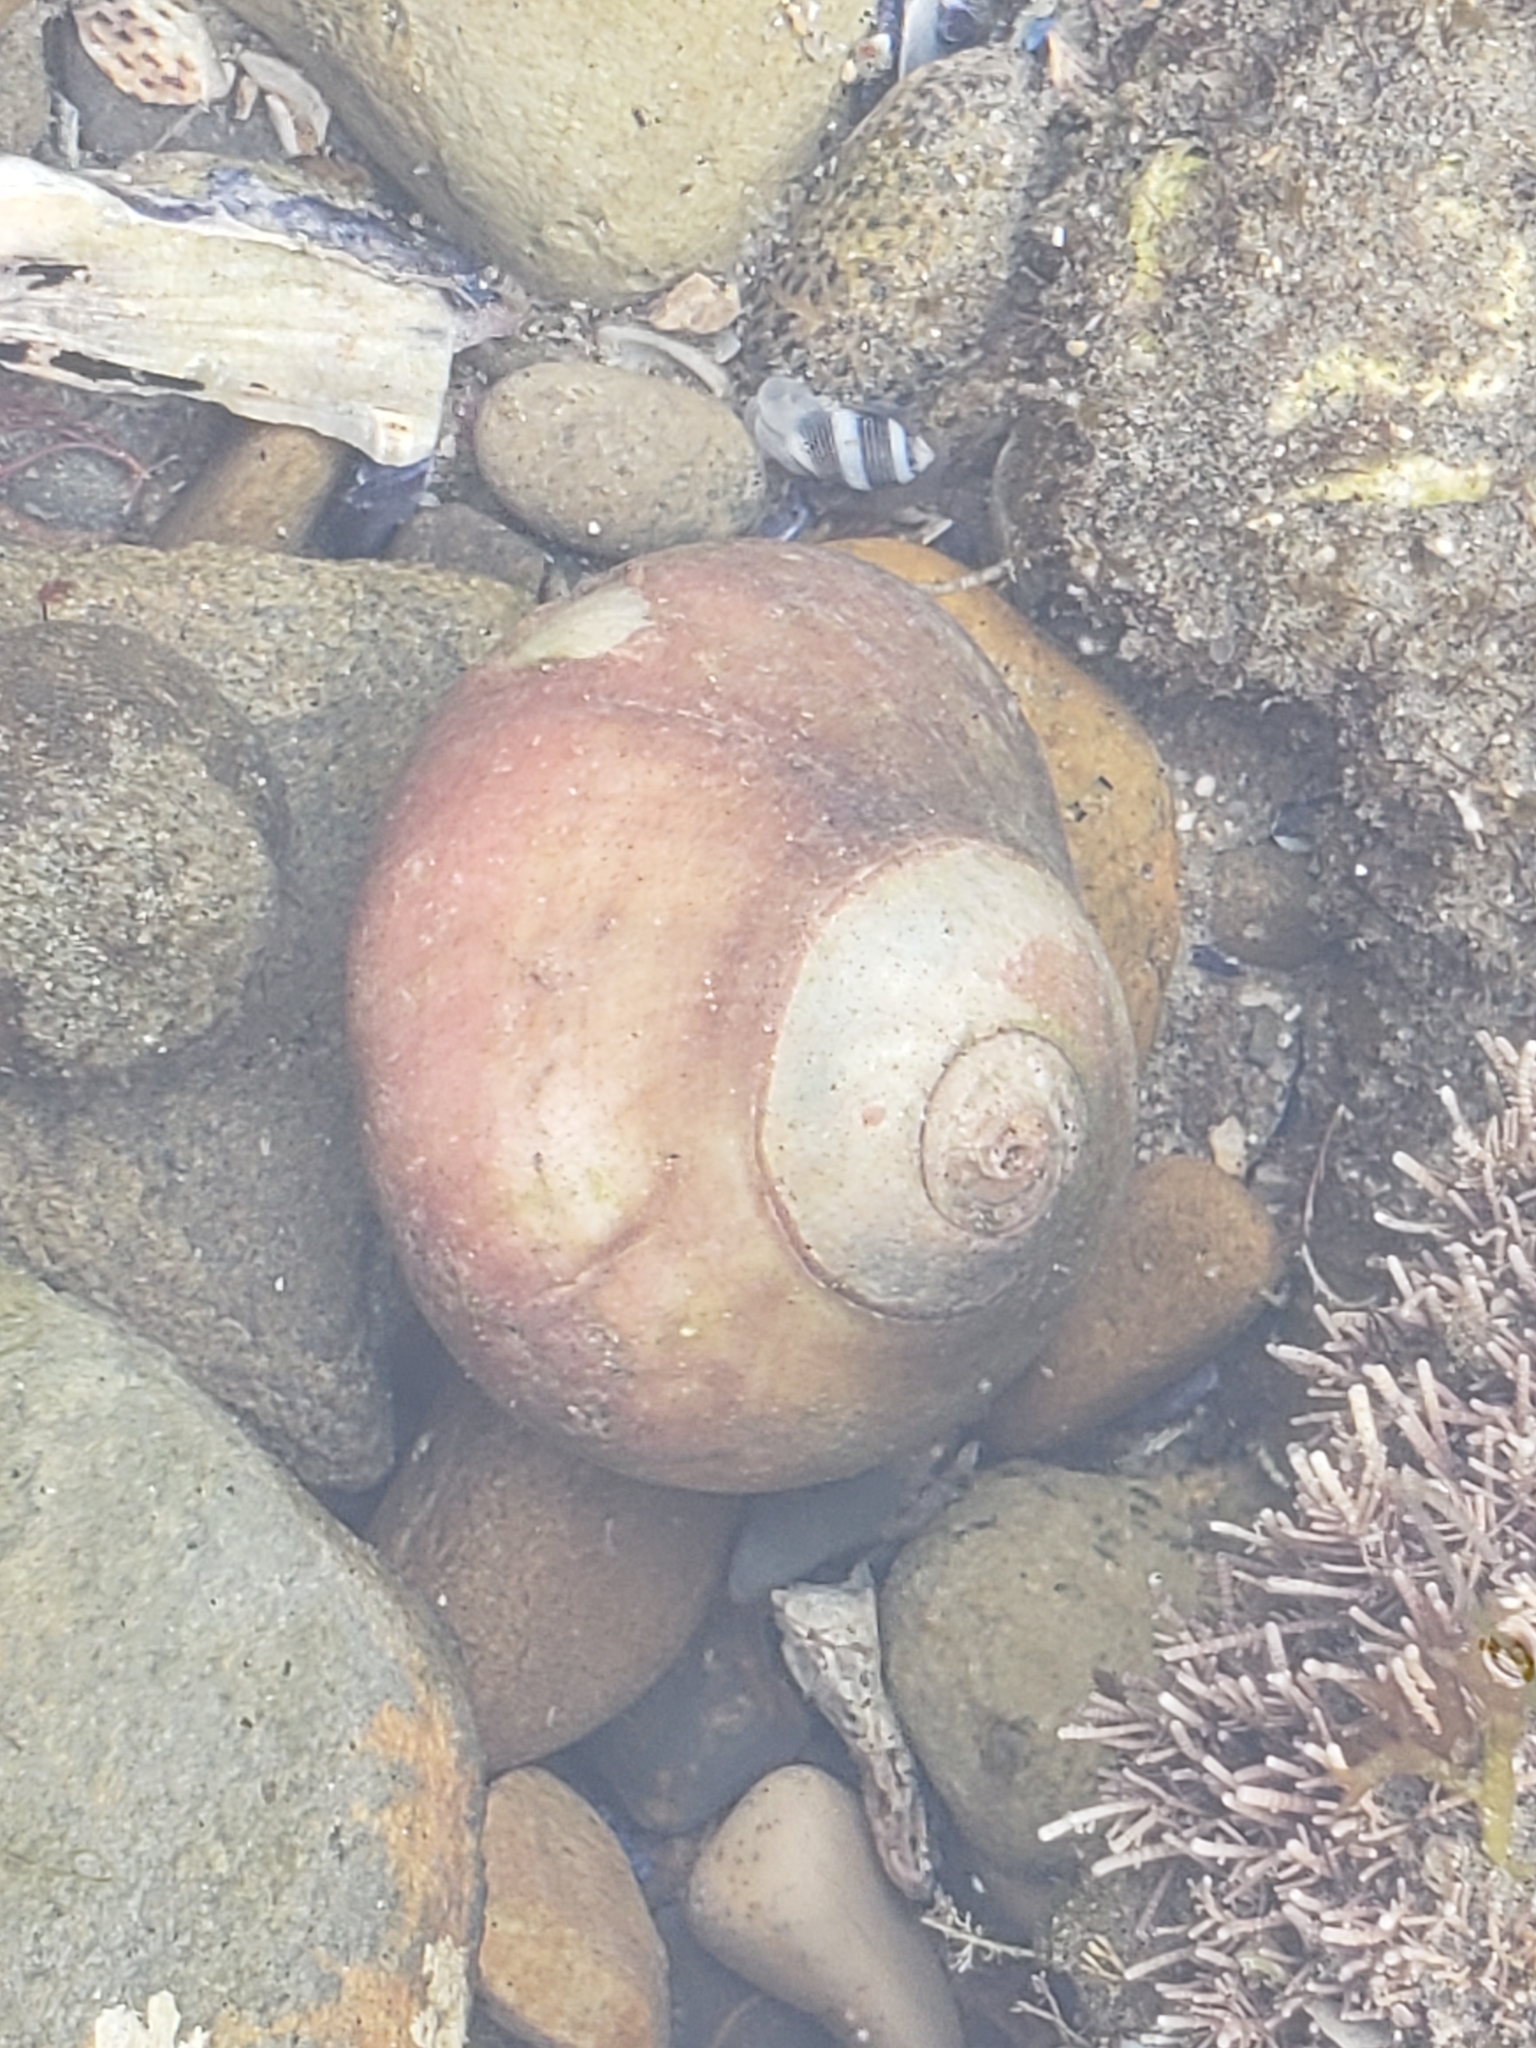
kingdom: Animalia
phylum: Mollusca
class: Gastropoda
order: Trochida
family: Tegulidae
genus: Norrisia
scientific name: Norrisia norrisii
